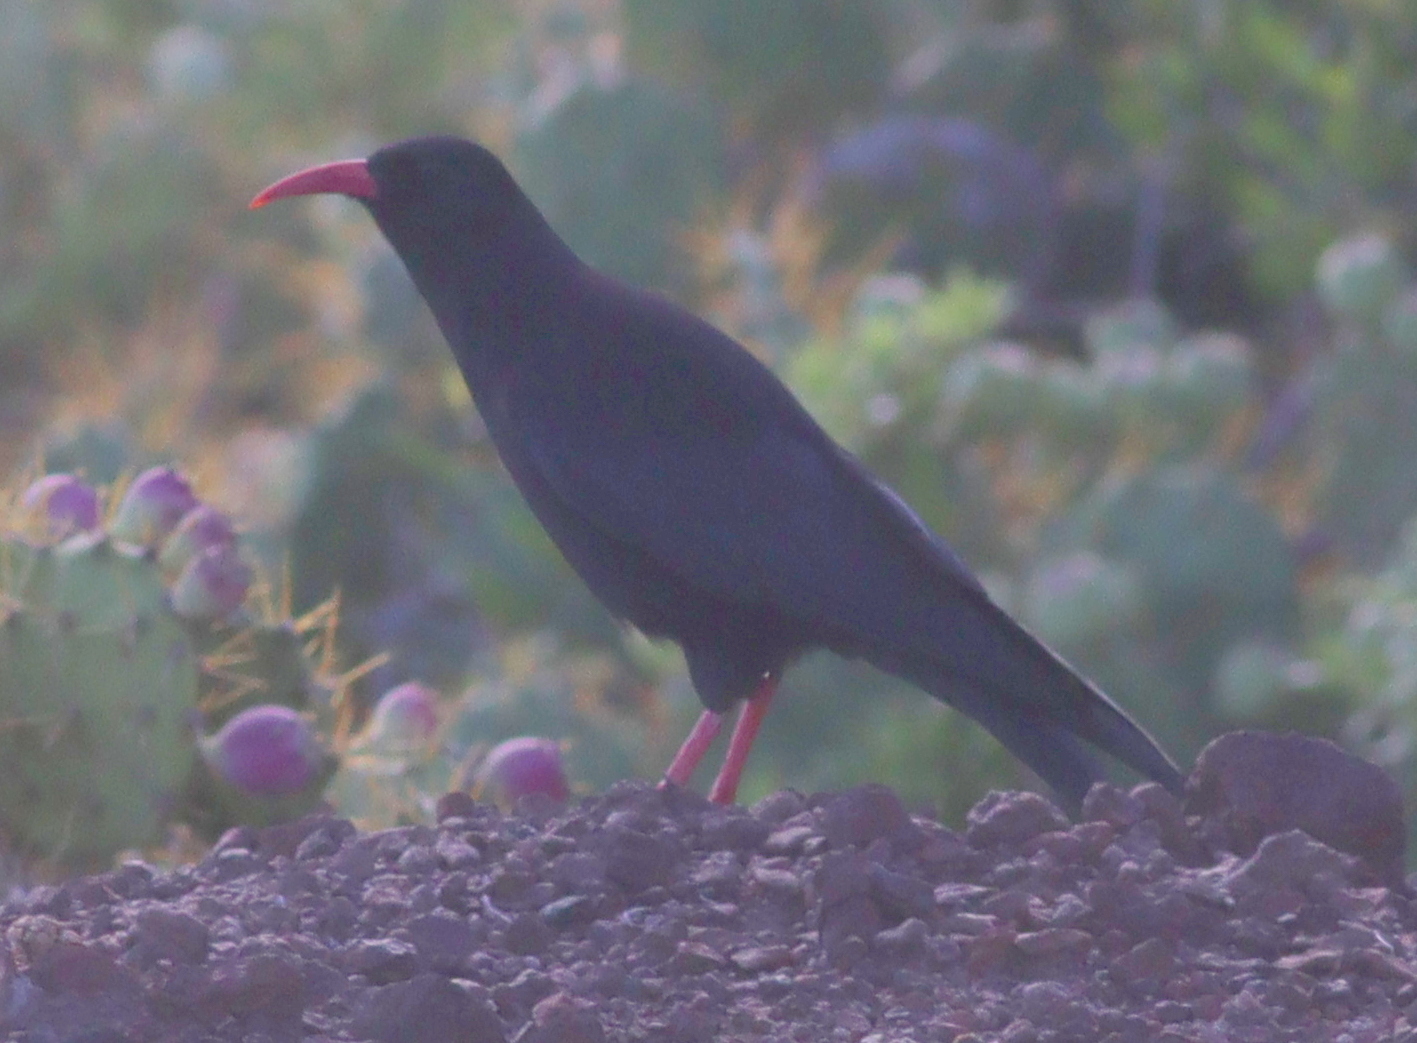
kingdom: Animalia
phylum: Chordata
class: Aves
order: Passeriformes
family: Corvidae
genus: Pyrrhocorax
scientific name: Pyrrhocorax pyrrhocorax
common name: Red-billed chough
